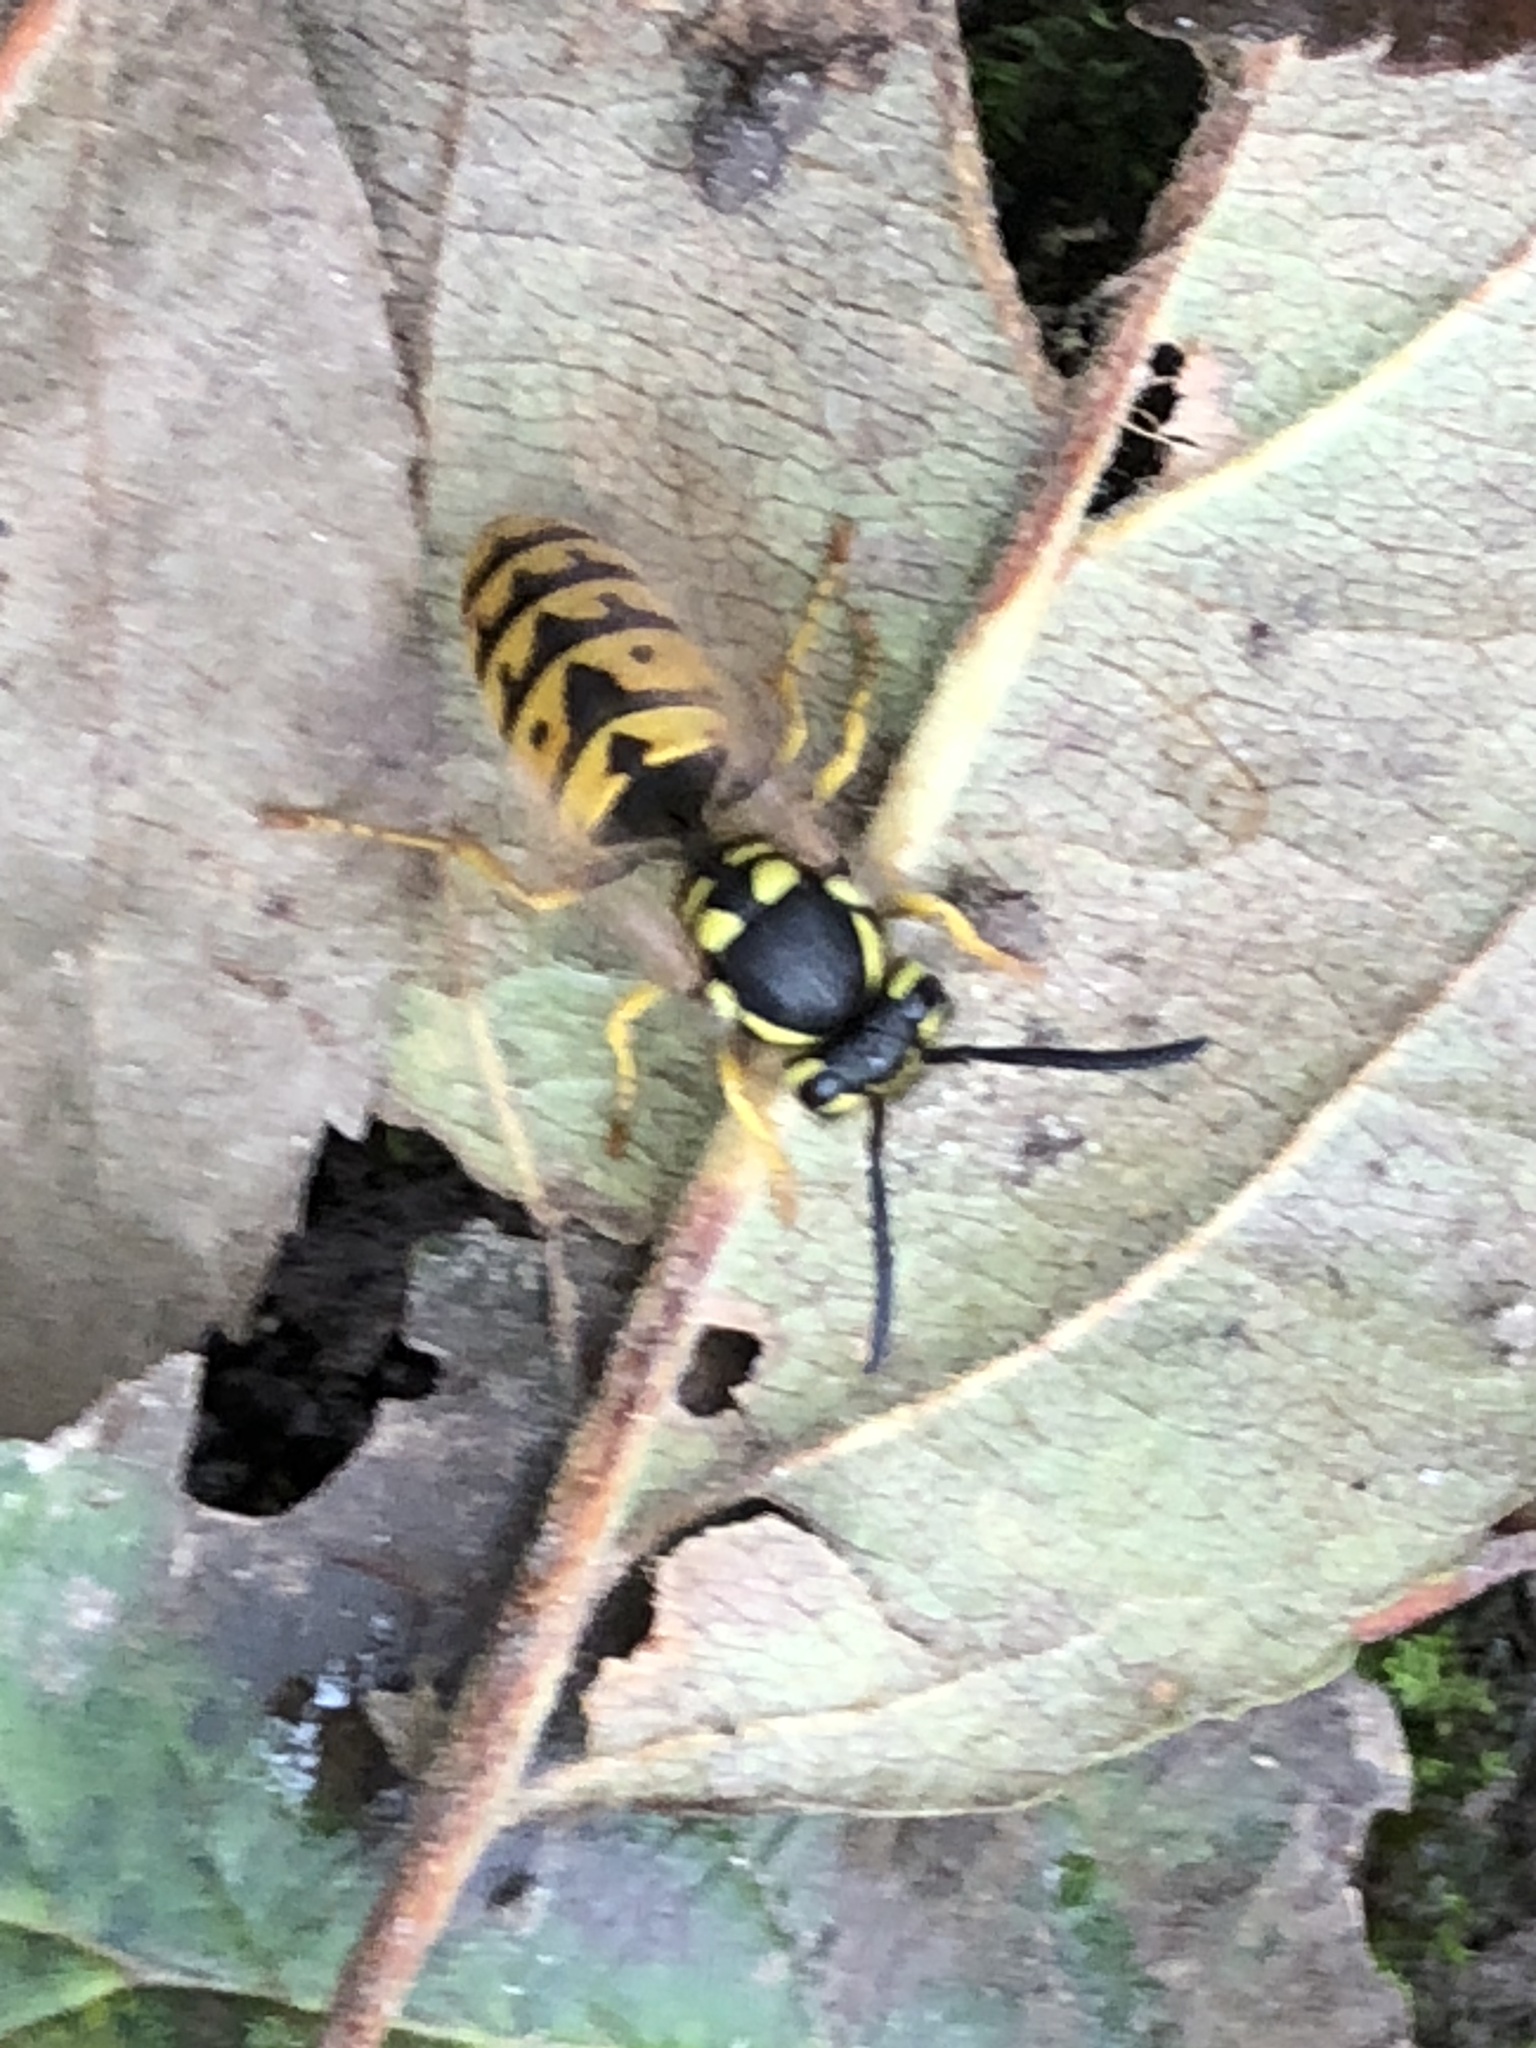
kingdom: Animalia
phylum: Arthropoda
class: Insecta
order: Hymenoptera
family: Vespidae
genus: Vespula
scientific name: Vespula germanica
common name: German wasp
